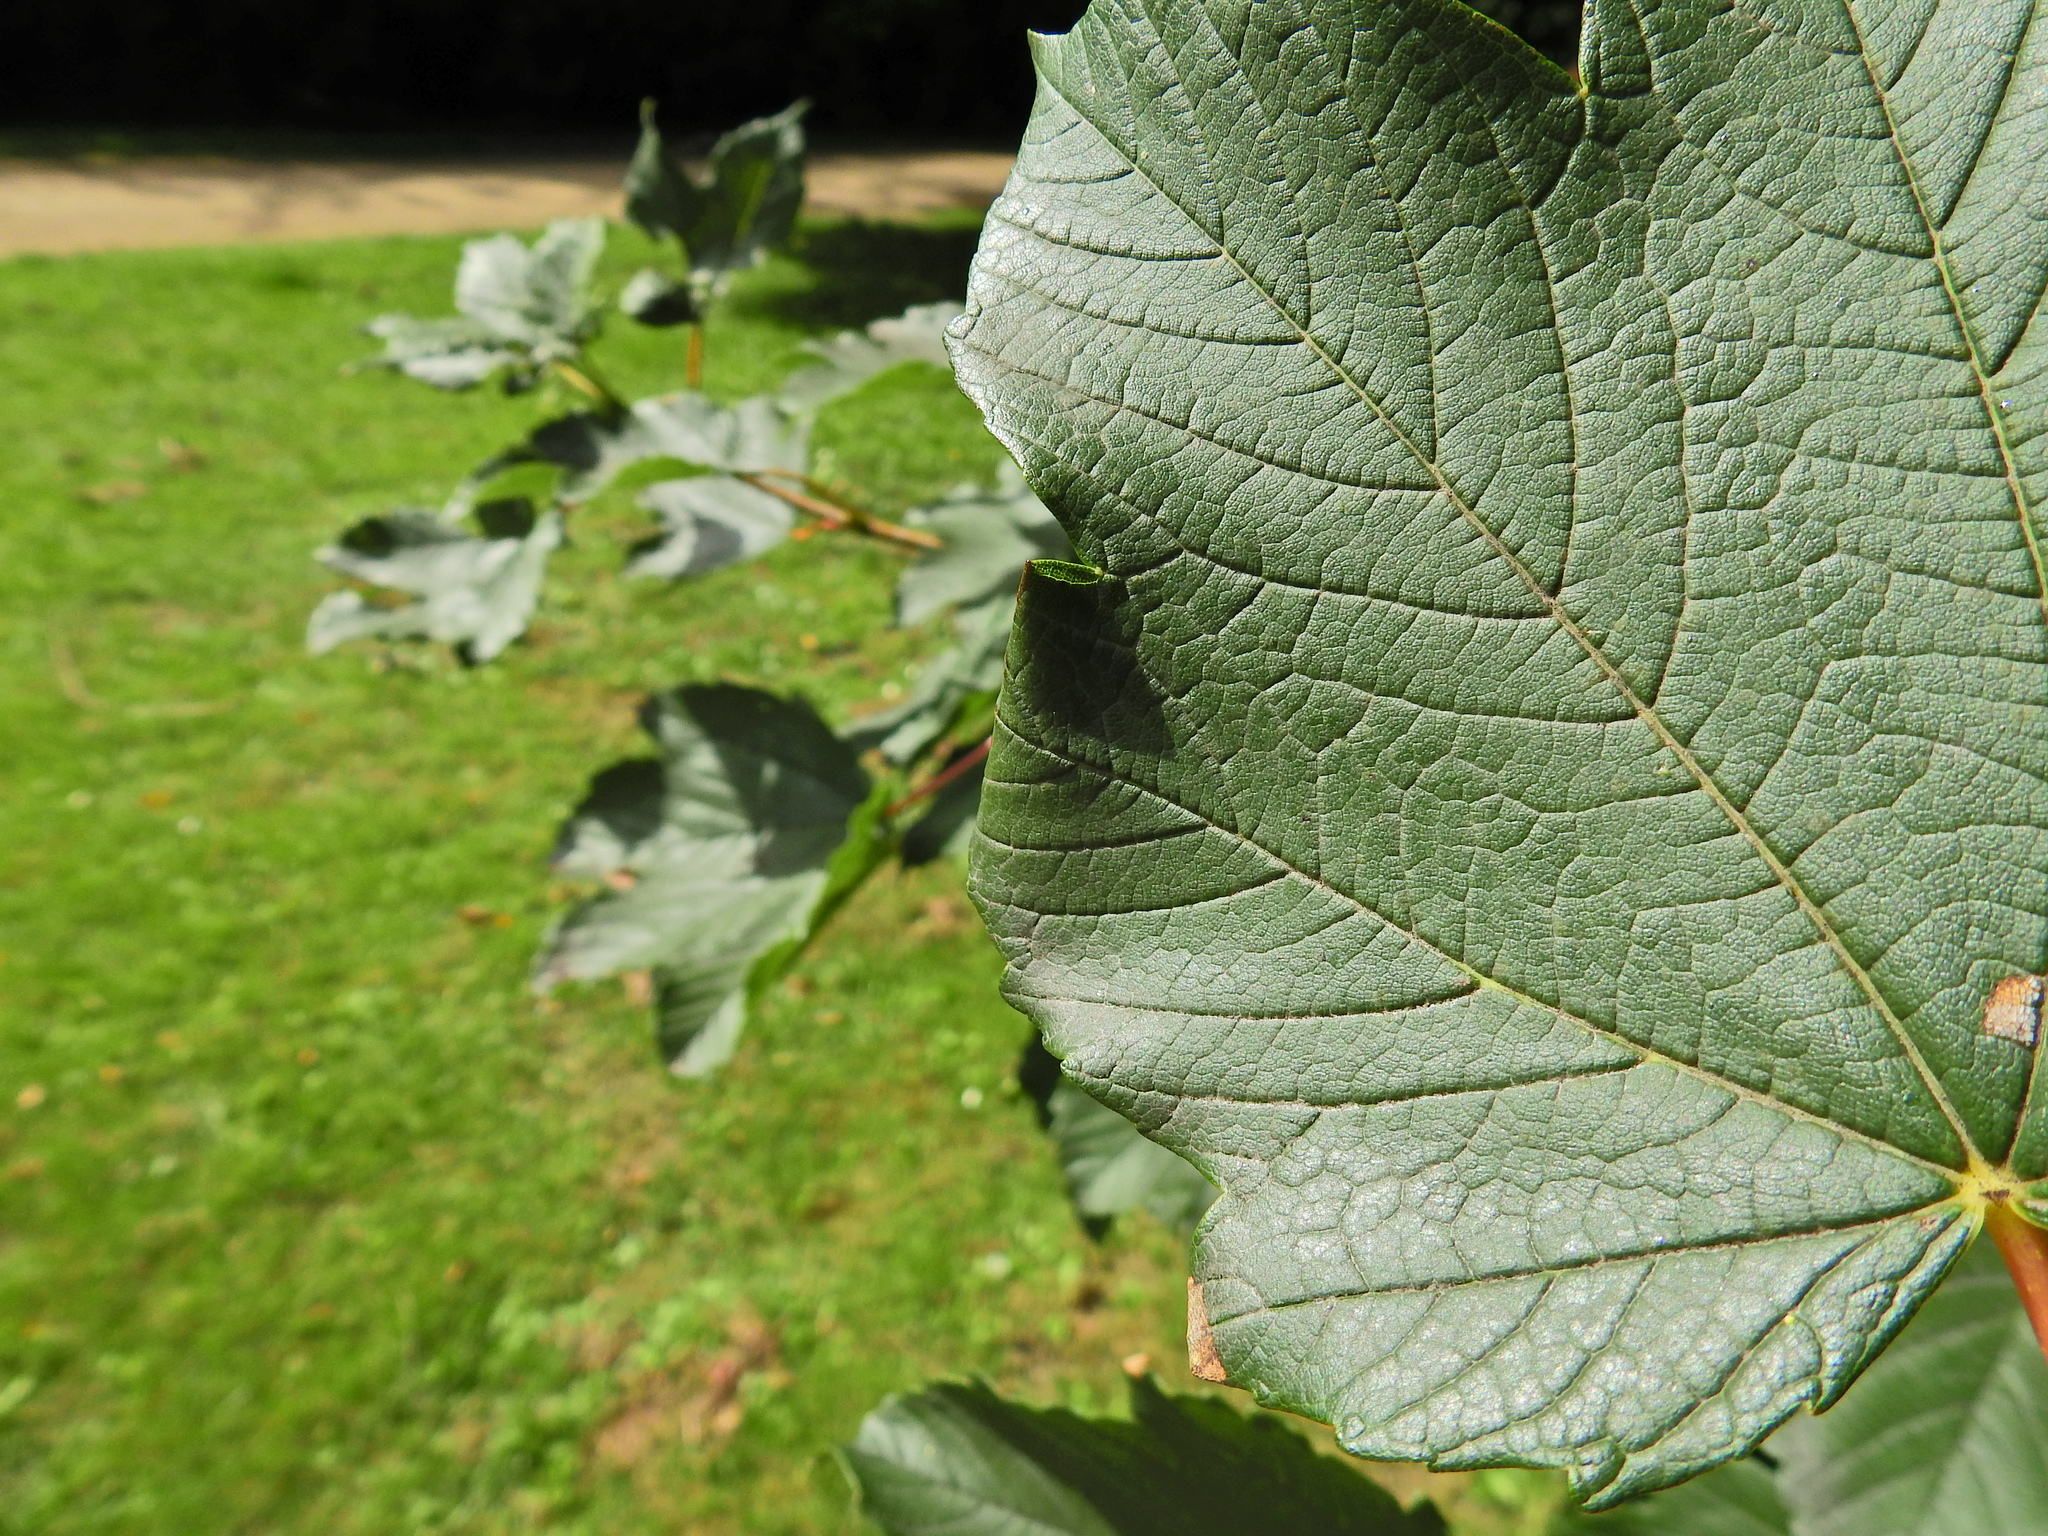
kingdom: Animalia
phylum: Arthropoda
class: Insecta
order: Lepidoptera
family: Gracillariidae
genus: Caloptilia
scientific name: Caloptilia rufipennella
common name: Small red slender
